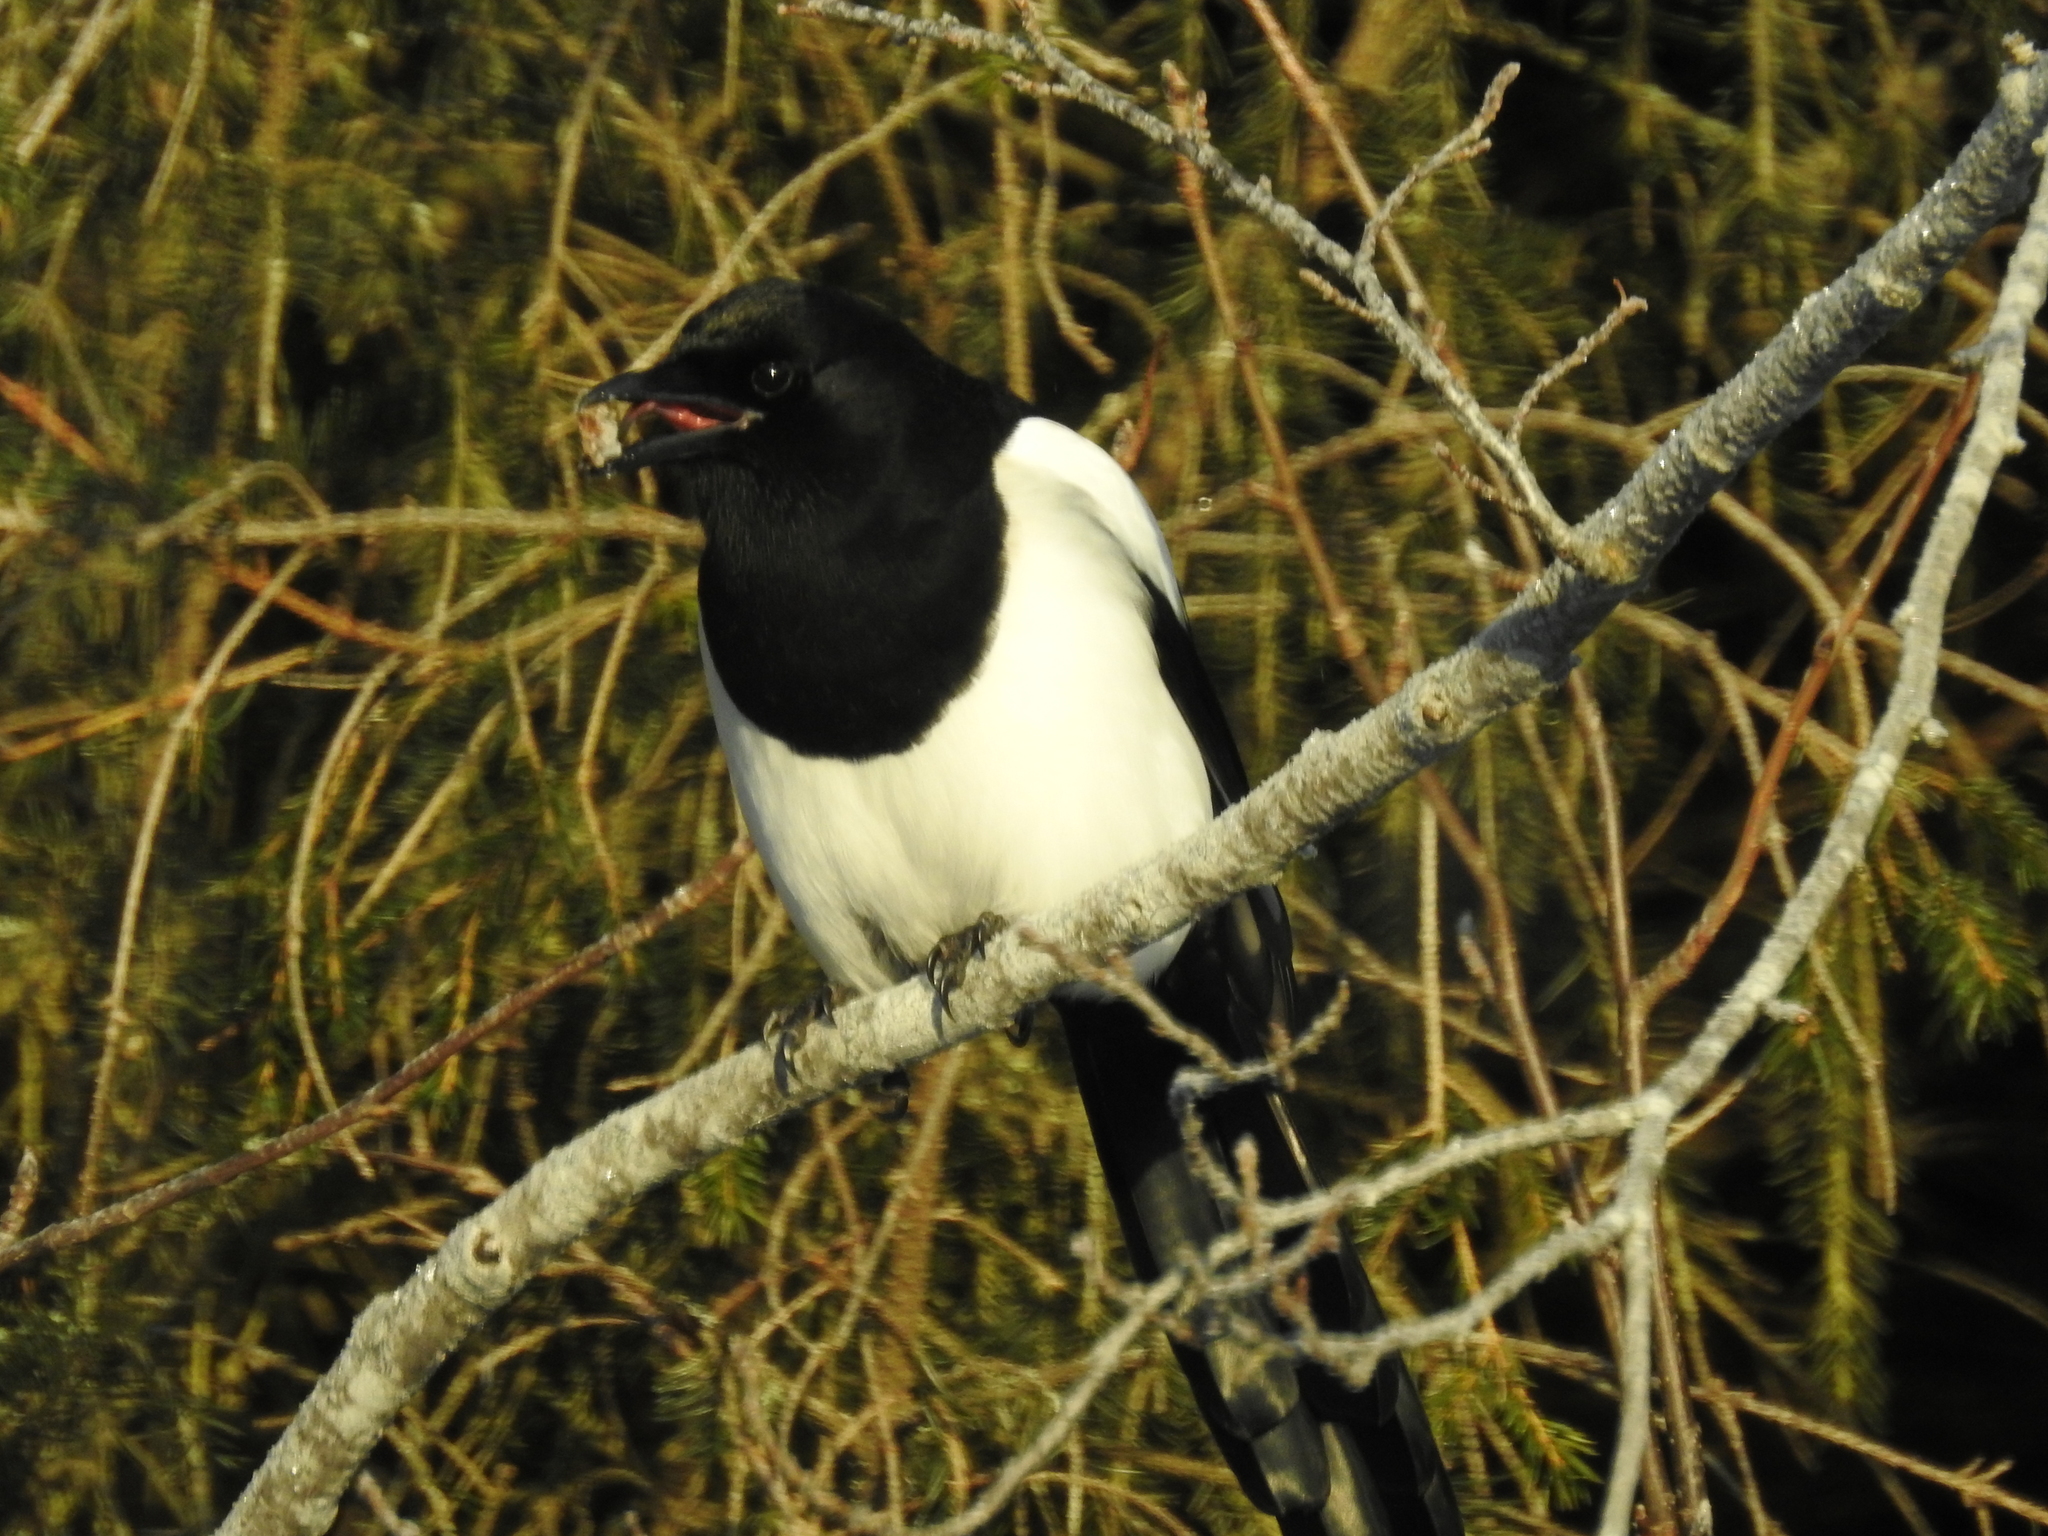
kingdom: Animalia
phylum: Chordata
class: Aves
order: Passeriformes
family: Corvidae
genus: Pica
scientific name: Pica pica
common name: Eurasian magpie
